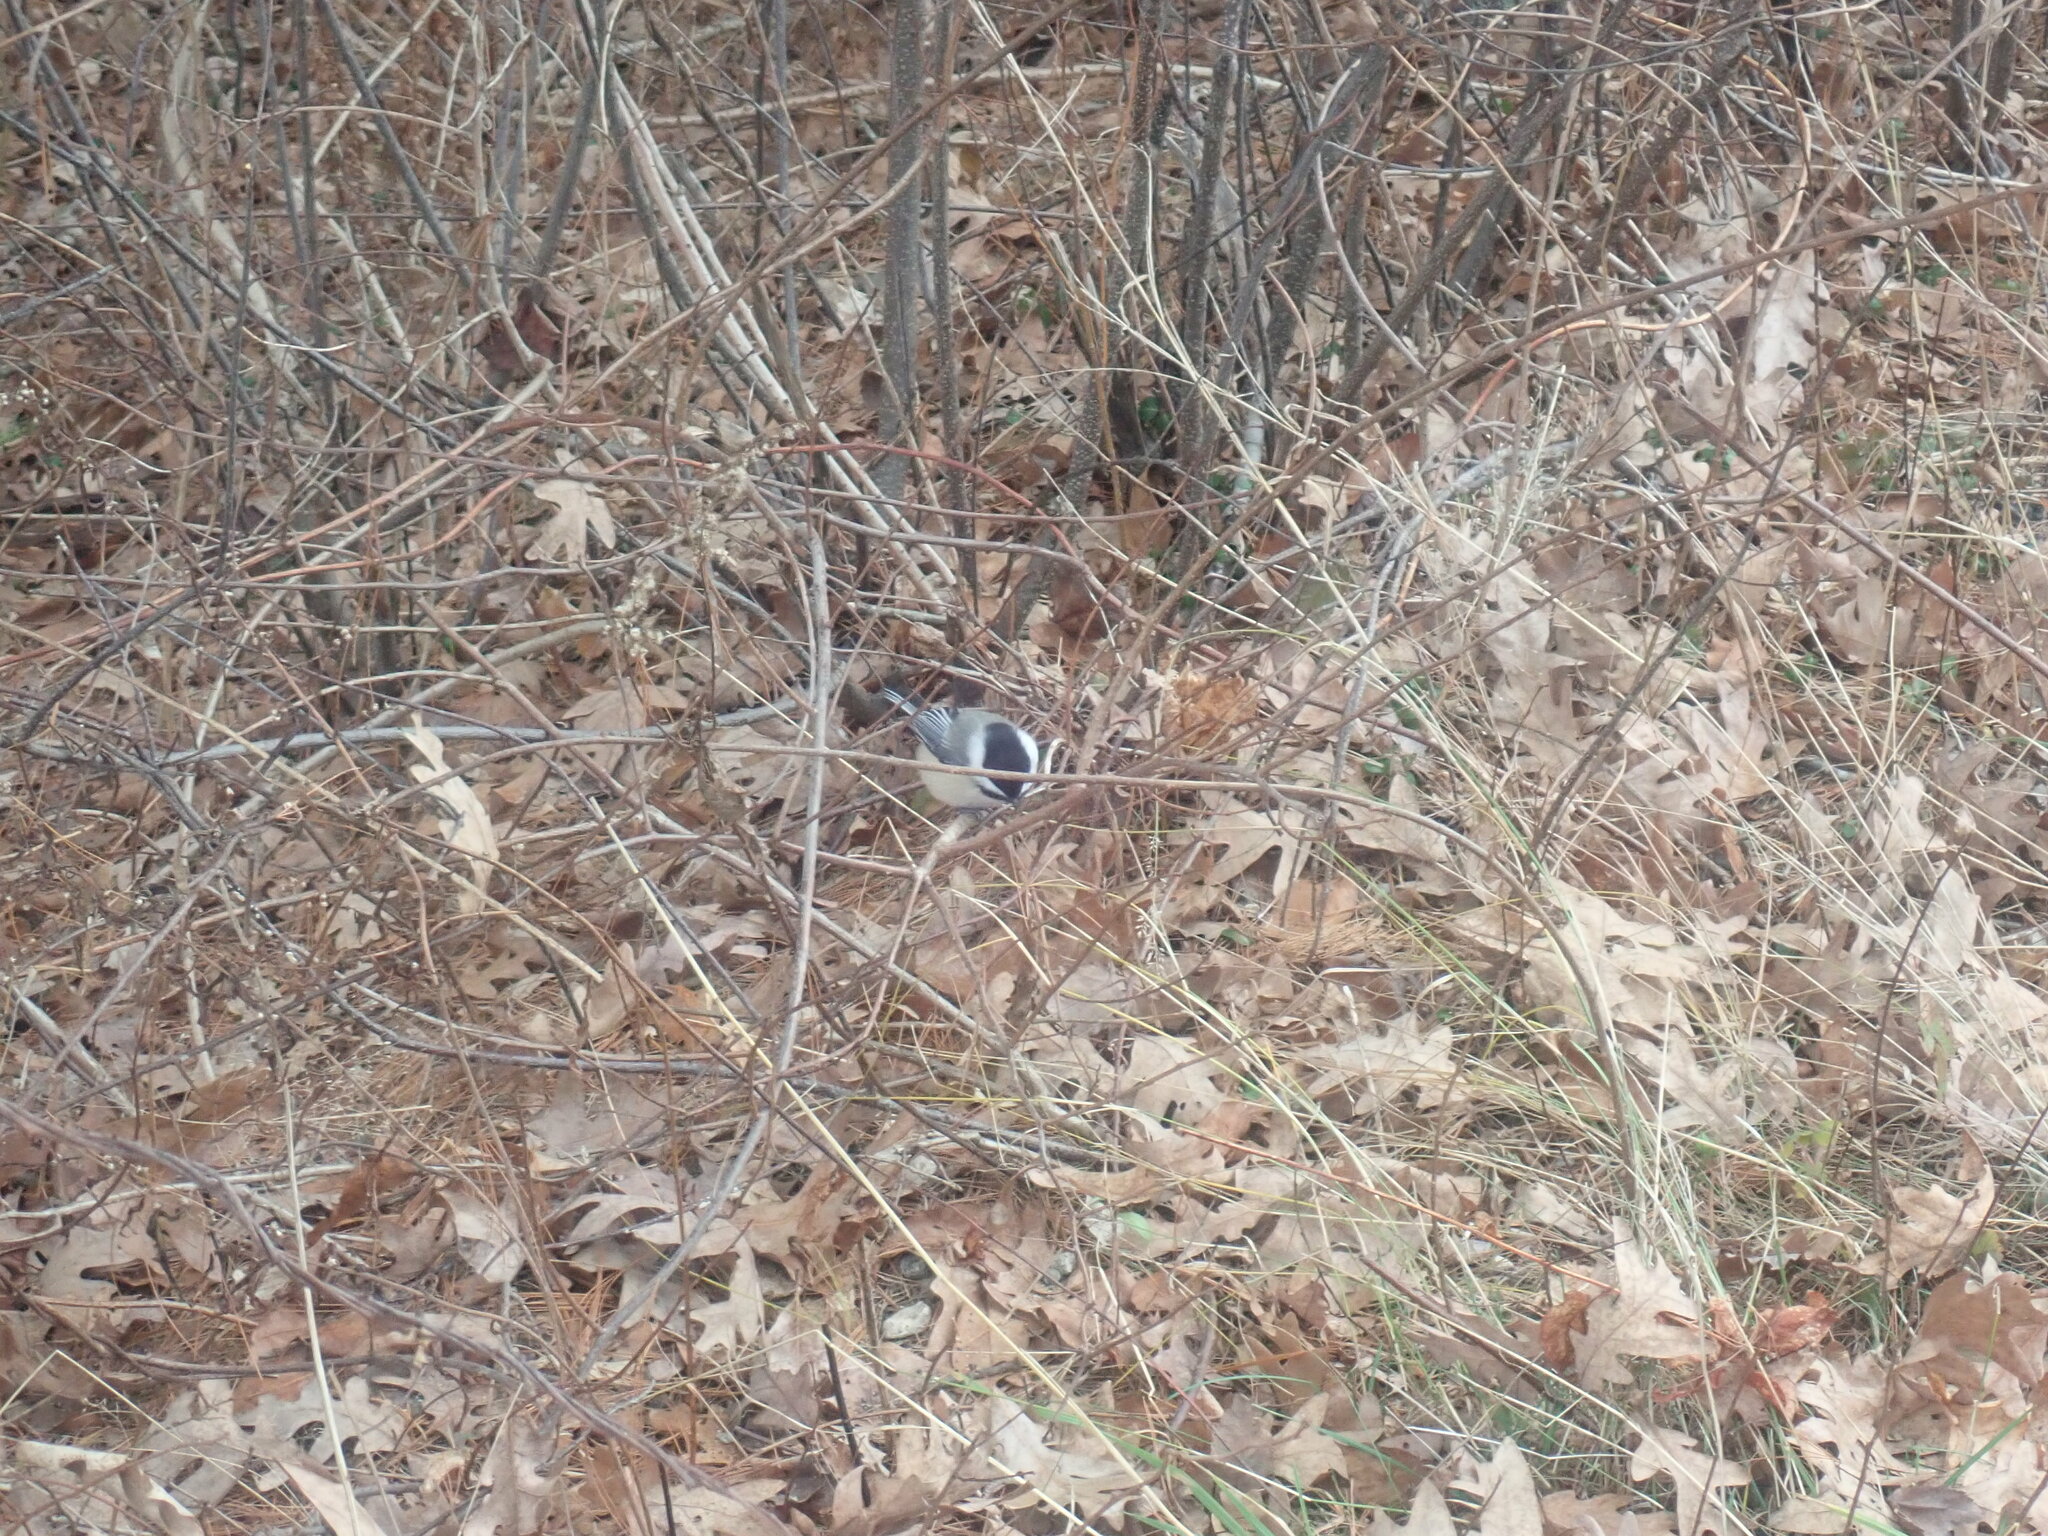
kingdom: Animalia
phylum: Chordata
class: Aves
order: Passeriformes
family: Paridae
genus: Poecile
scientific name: Poecile atricapillus
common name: Black-capped chickadee
